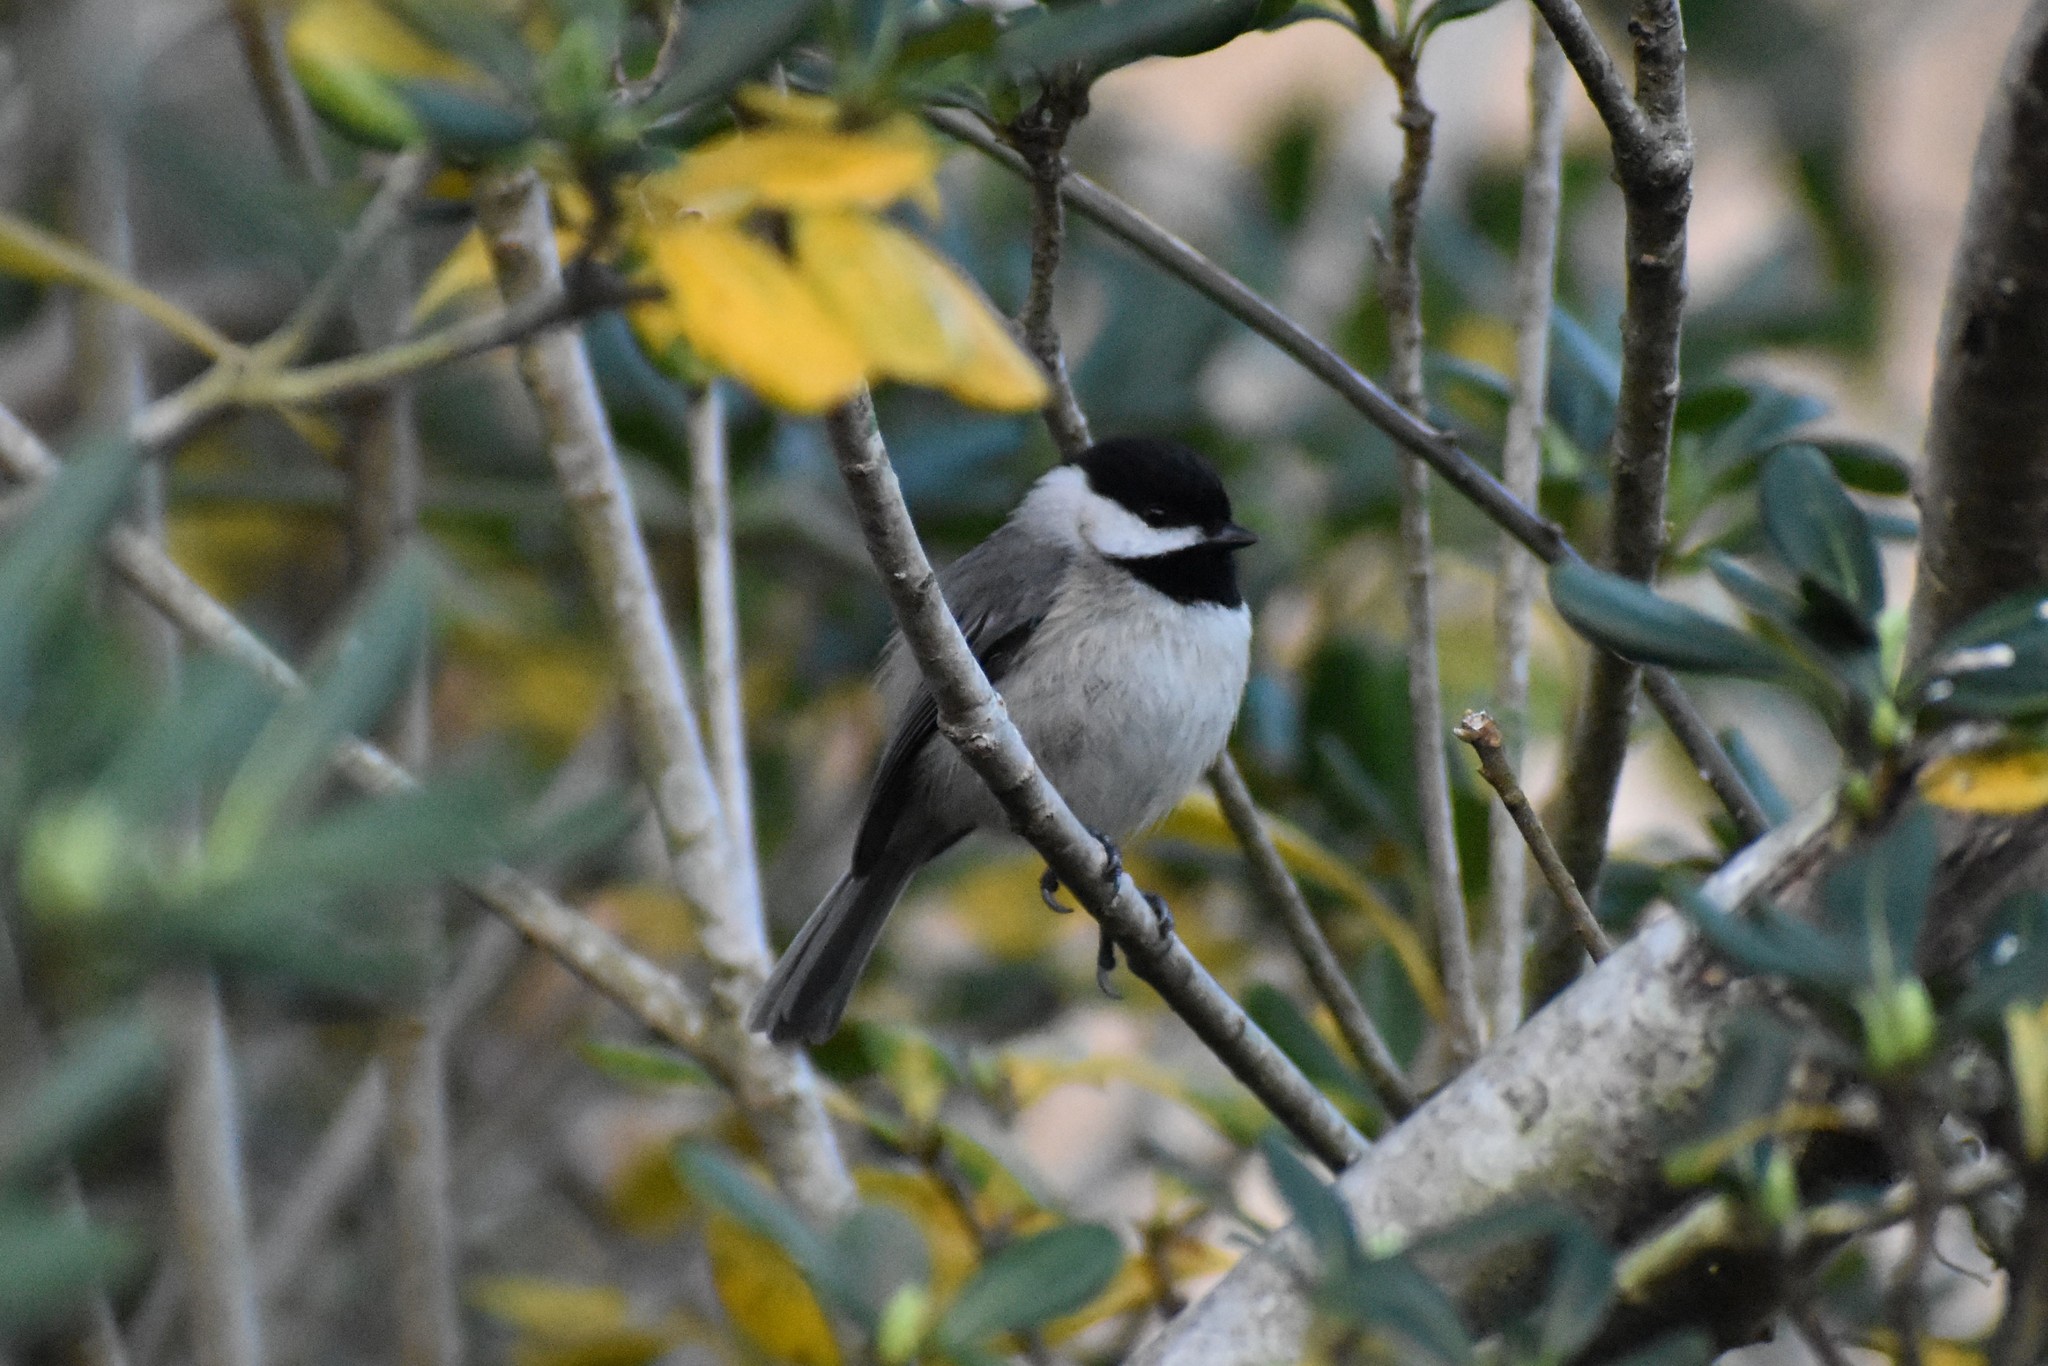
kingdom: Animalia
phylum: Chordata
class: Aves
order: Passeriformes
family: Paridae
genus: Poecile
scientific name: Poecile carolinensis
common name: Carolina chickadee
